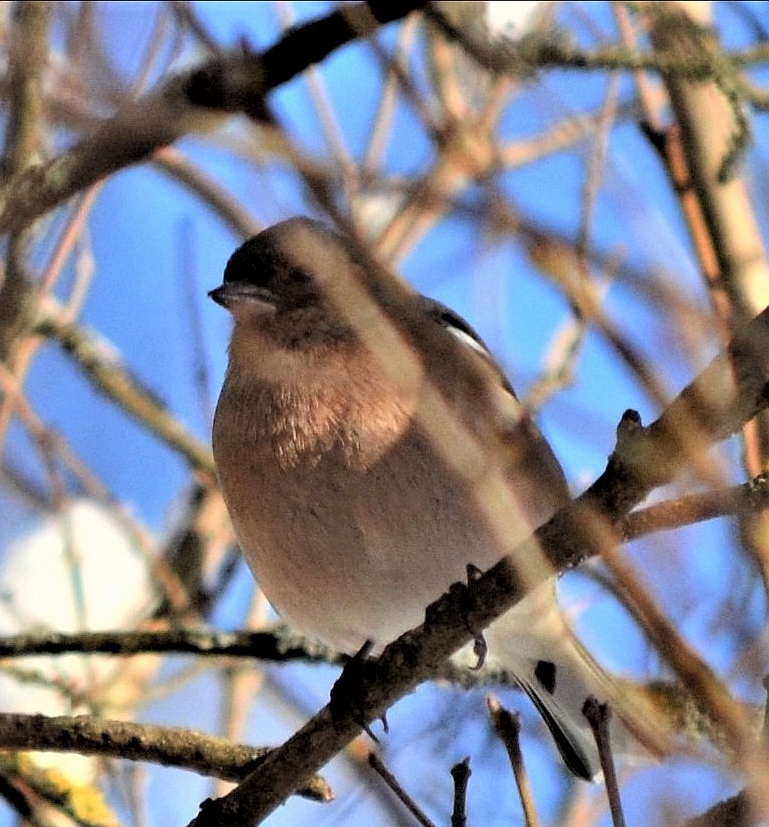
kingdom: Animalia
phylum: Chordata
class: Aves
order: Passeriformes
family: Fringillidae
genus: Fringilla
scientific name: Fringilla coelebs
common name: Common chaffinch
